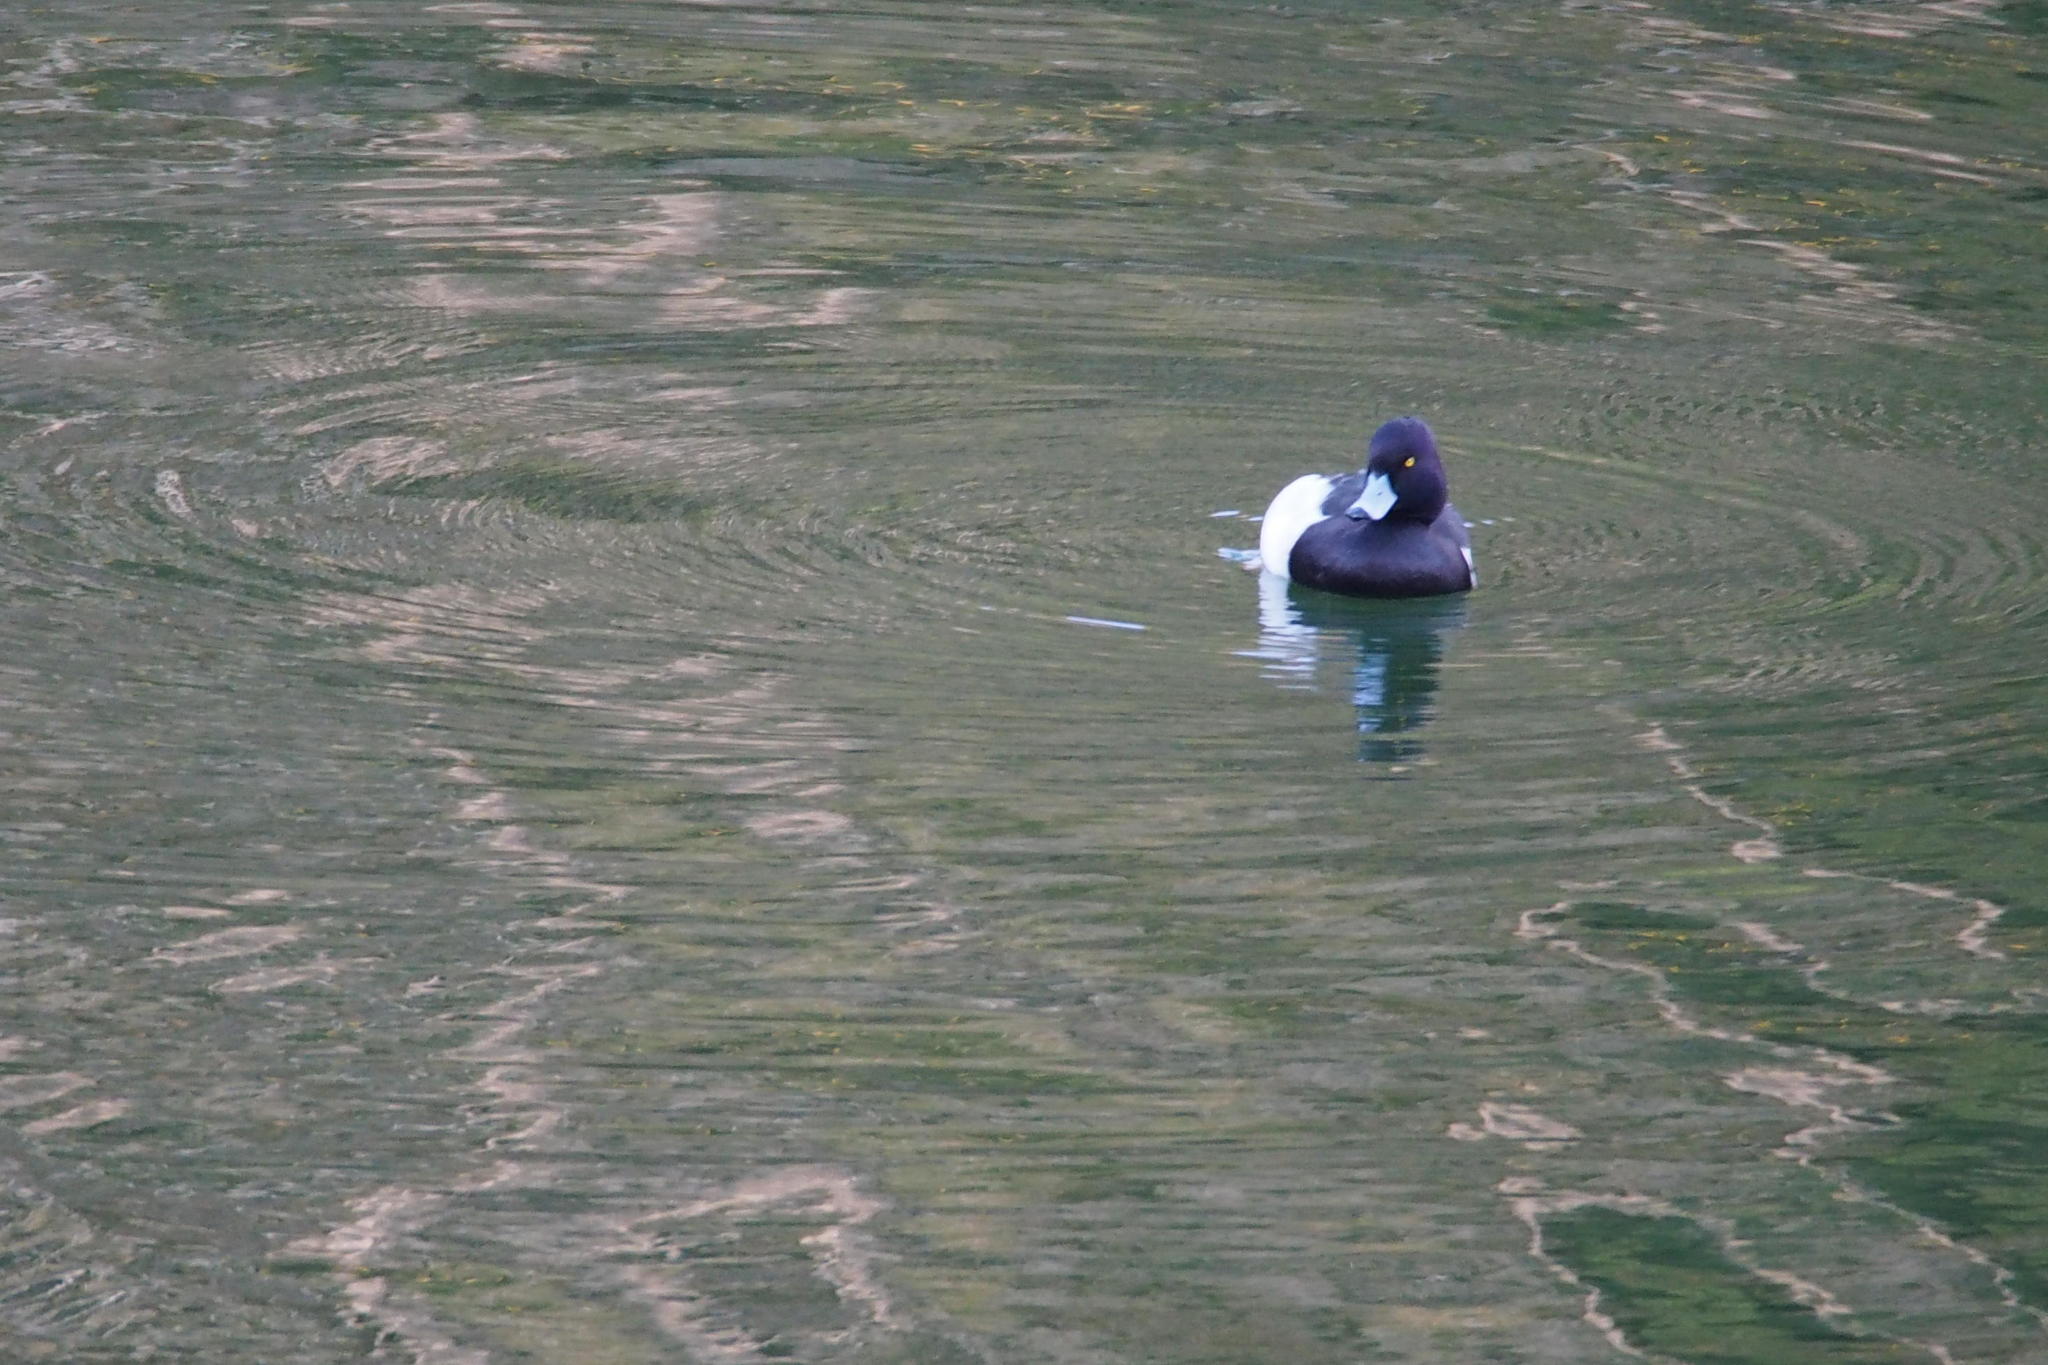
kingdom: Animalia
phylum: Chordata
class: Aves
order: Anseriformes
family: Anatidae
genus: Aythya
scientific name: Aythya fuligula
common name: Tufted duck
